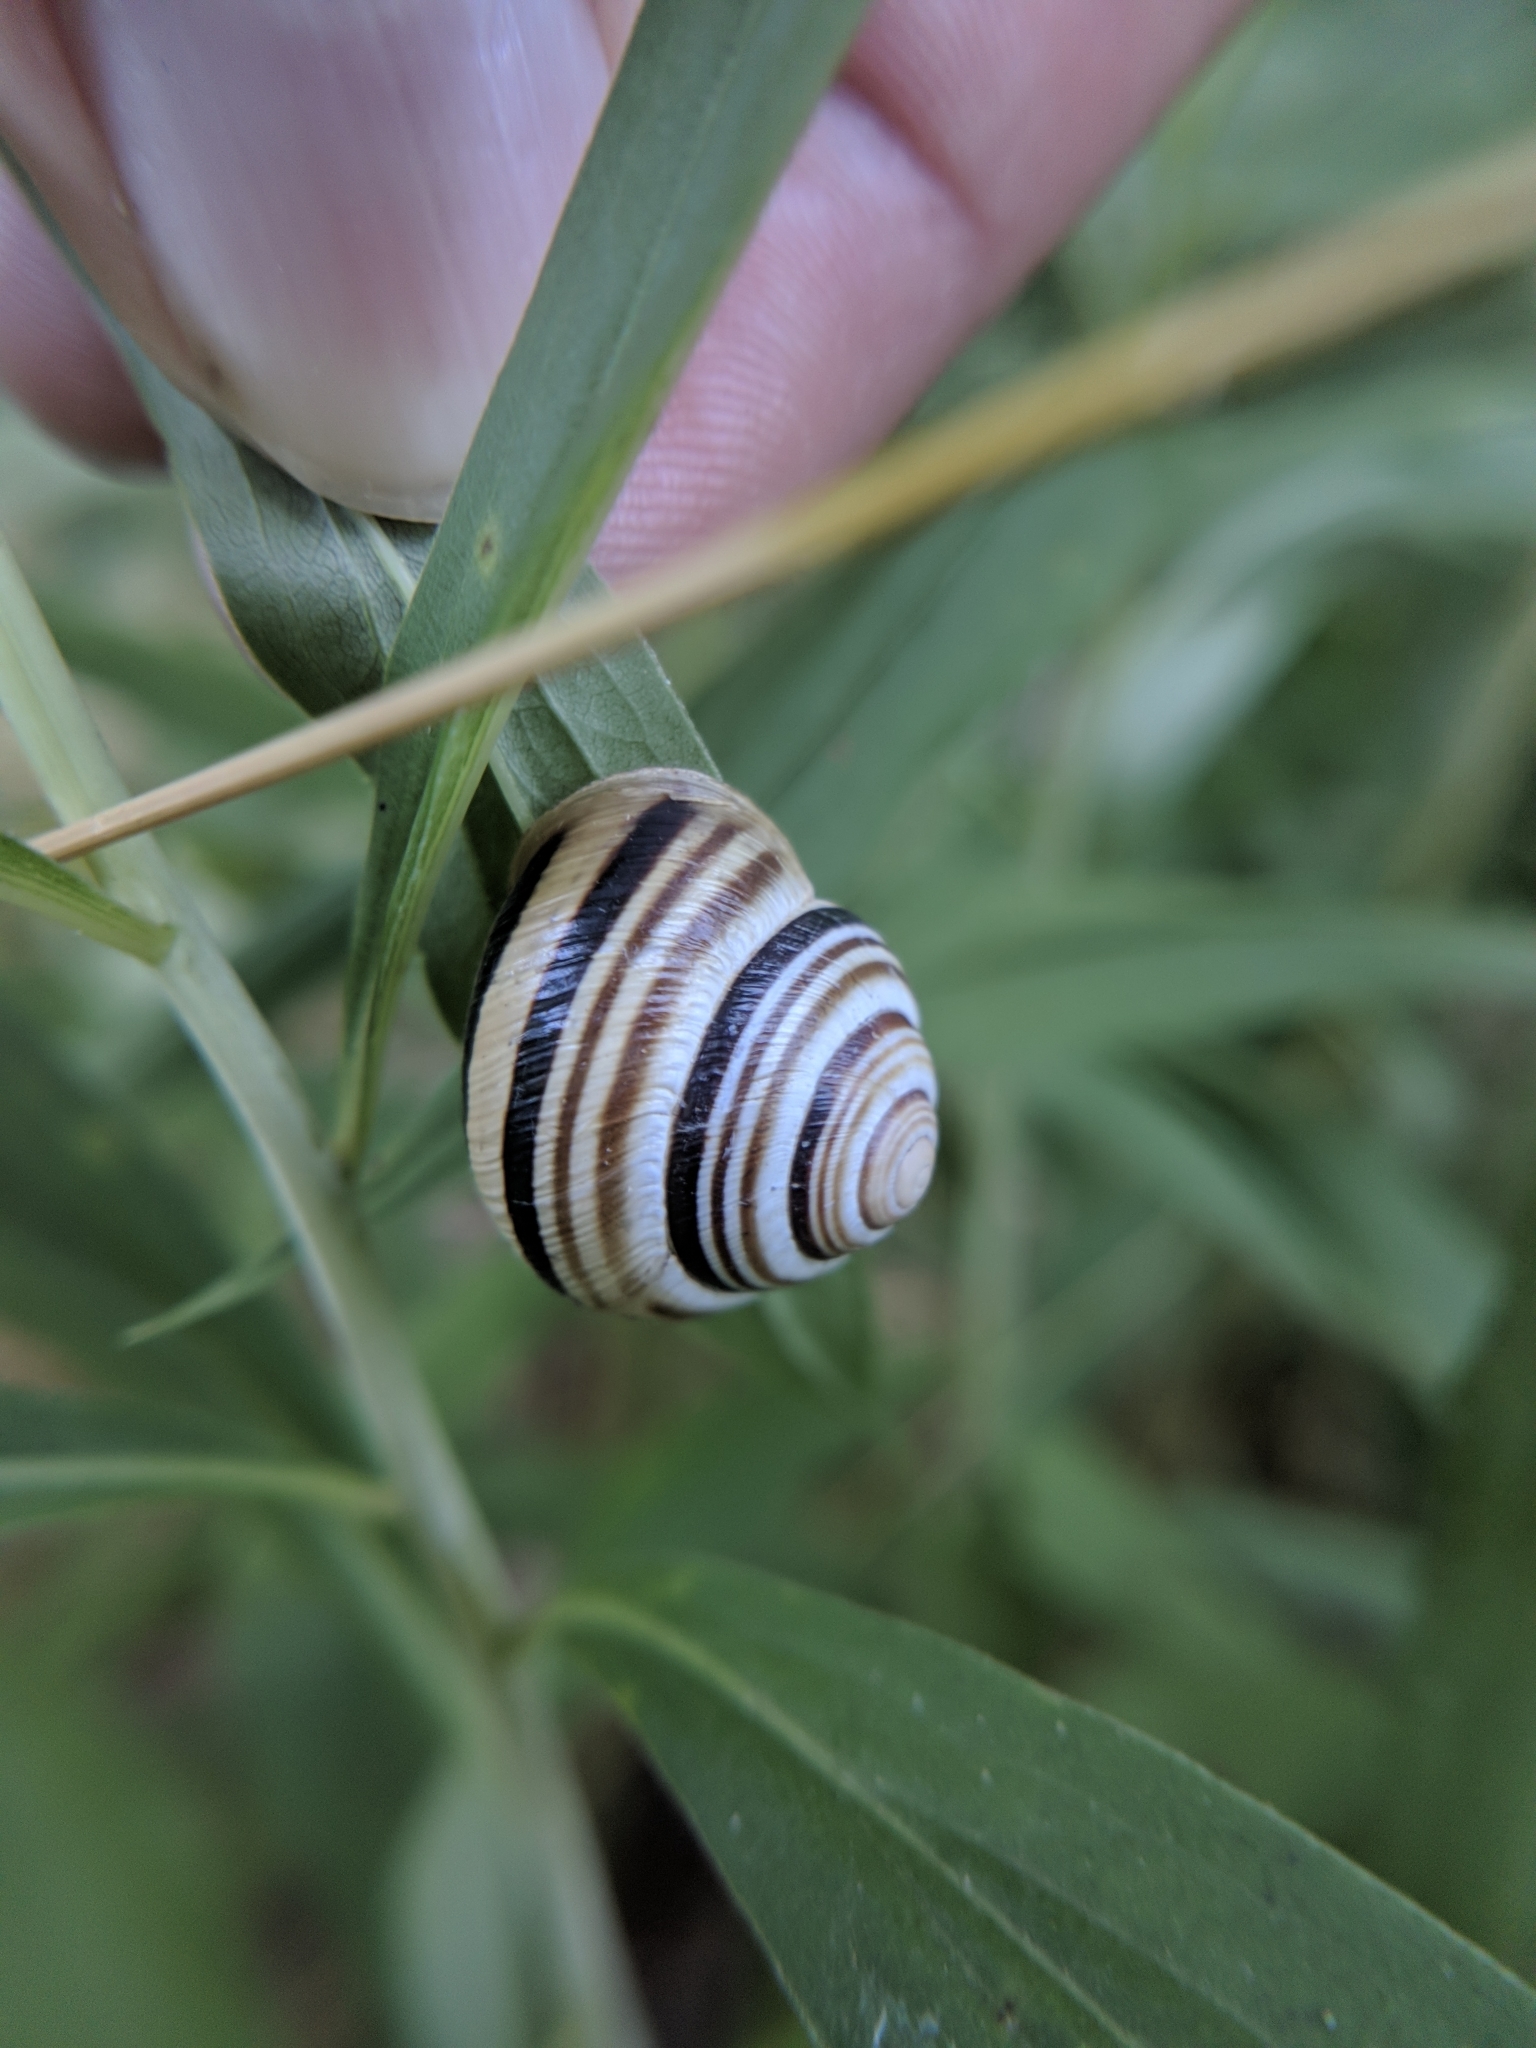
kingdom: Animalia
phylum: Mollusca
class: Gastropoda
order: Stylommatophora
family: Helicidae
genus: Caucasotachea
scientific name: Caucasotachea vindobonensis
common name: European helicid land snail
